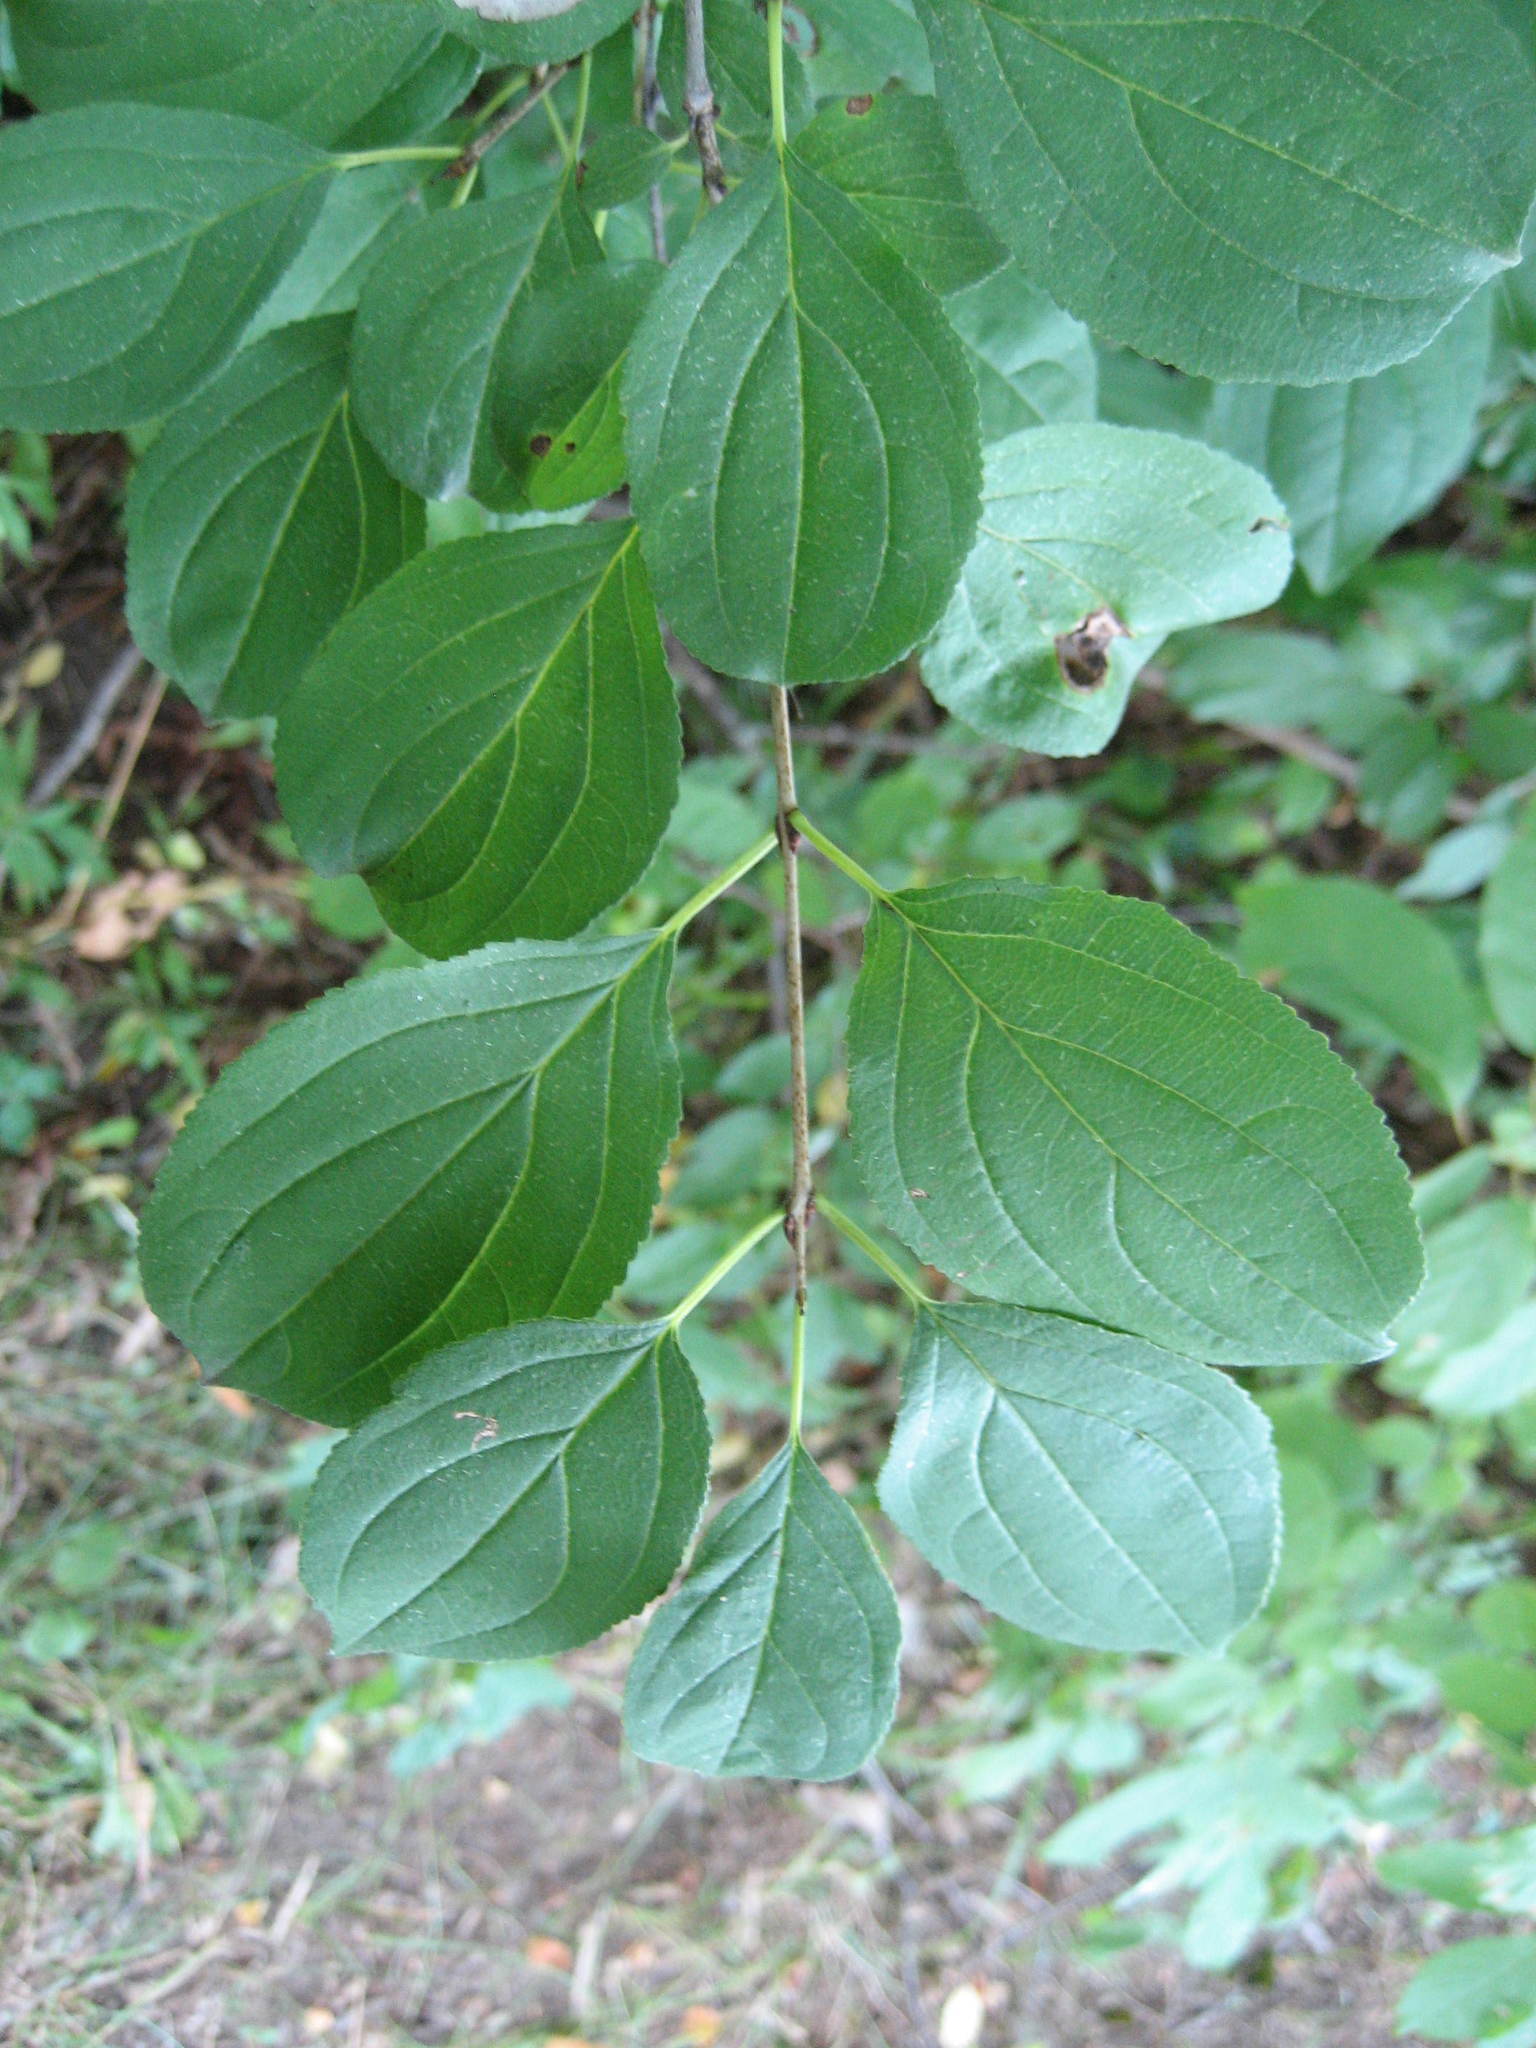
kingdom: Plantae
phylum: Tracheophyta
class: Magnoliopsida
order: Rosales
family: Rhamnaceae
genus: Rhamnus
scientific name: Rhamnus cathartica
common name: Common buckthorn
